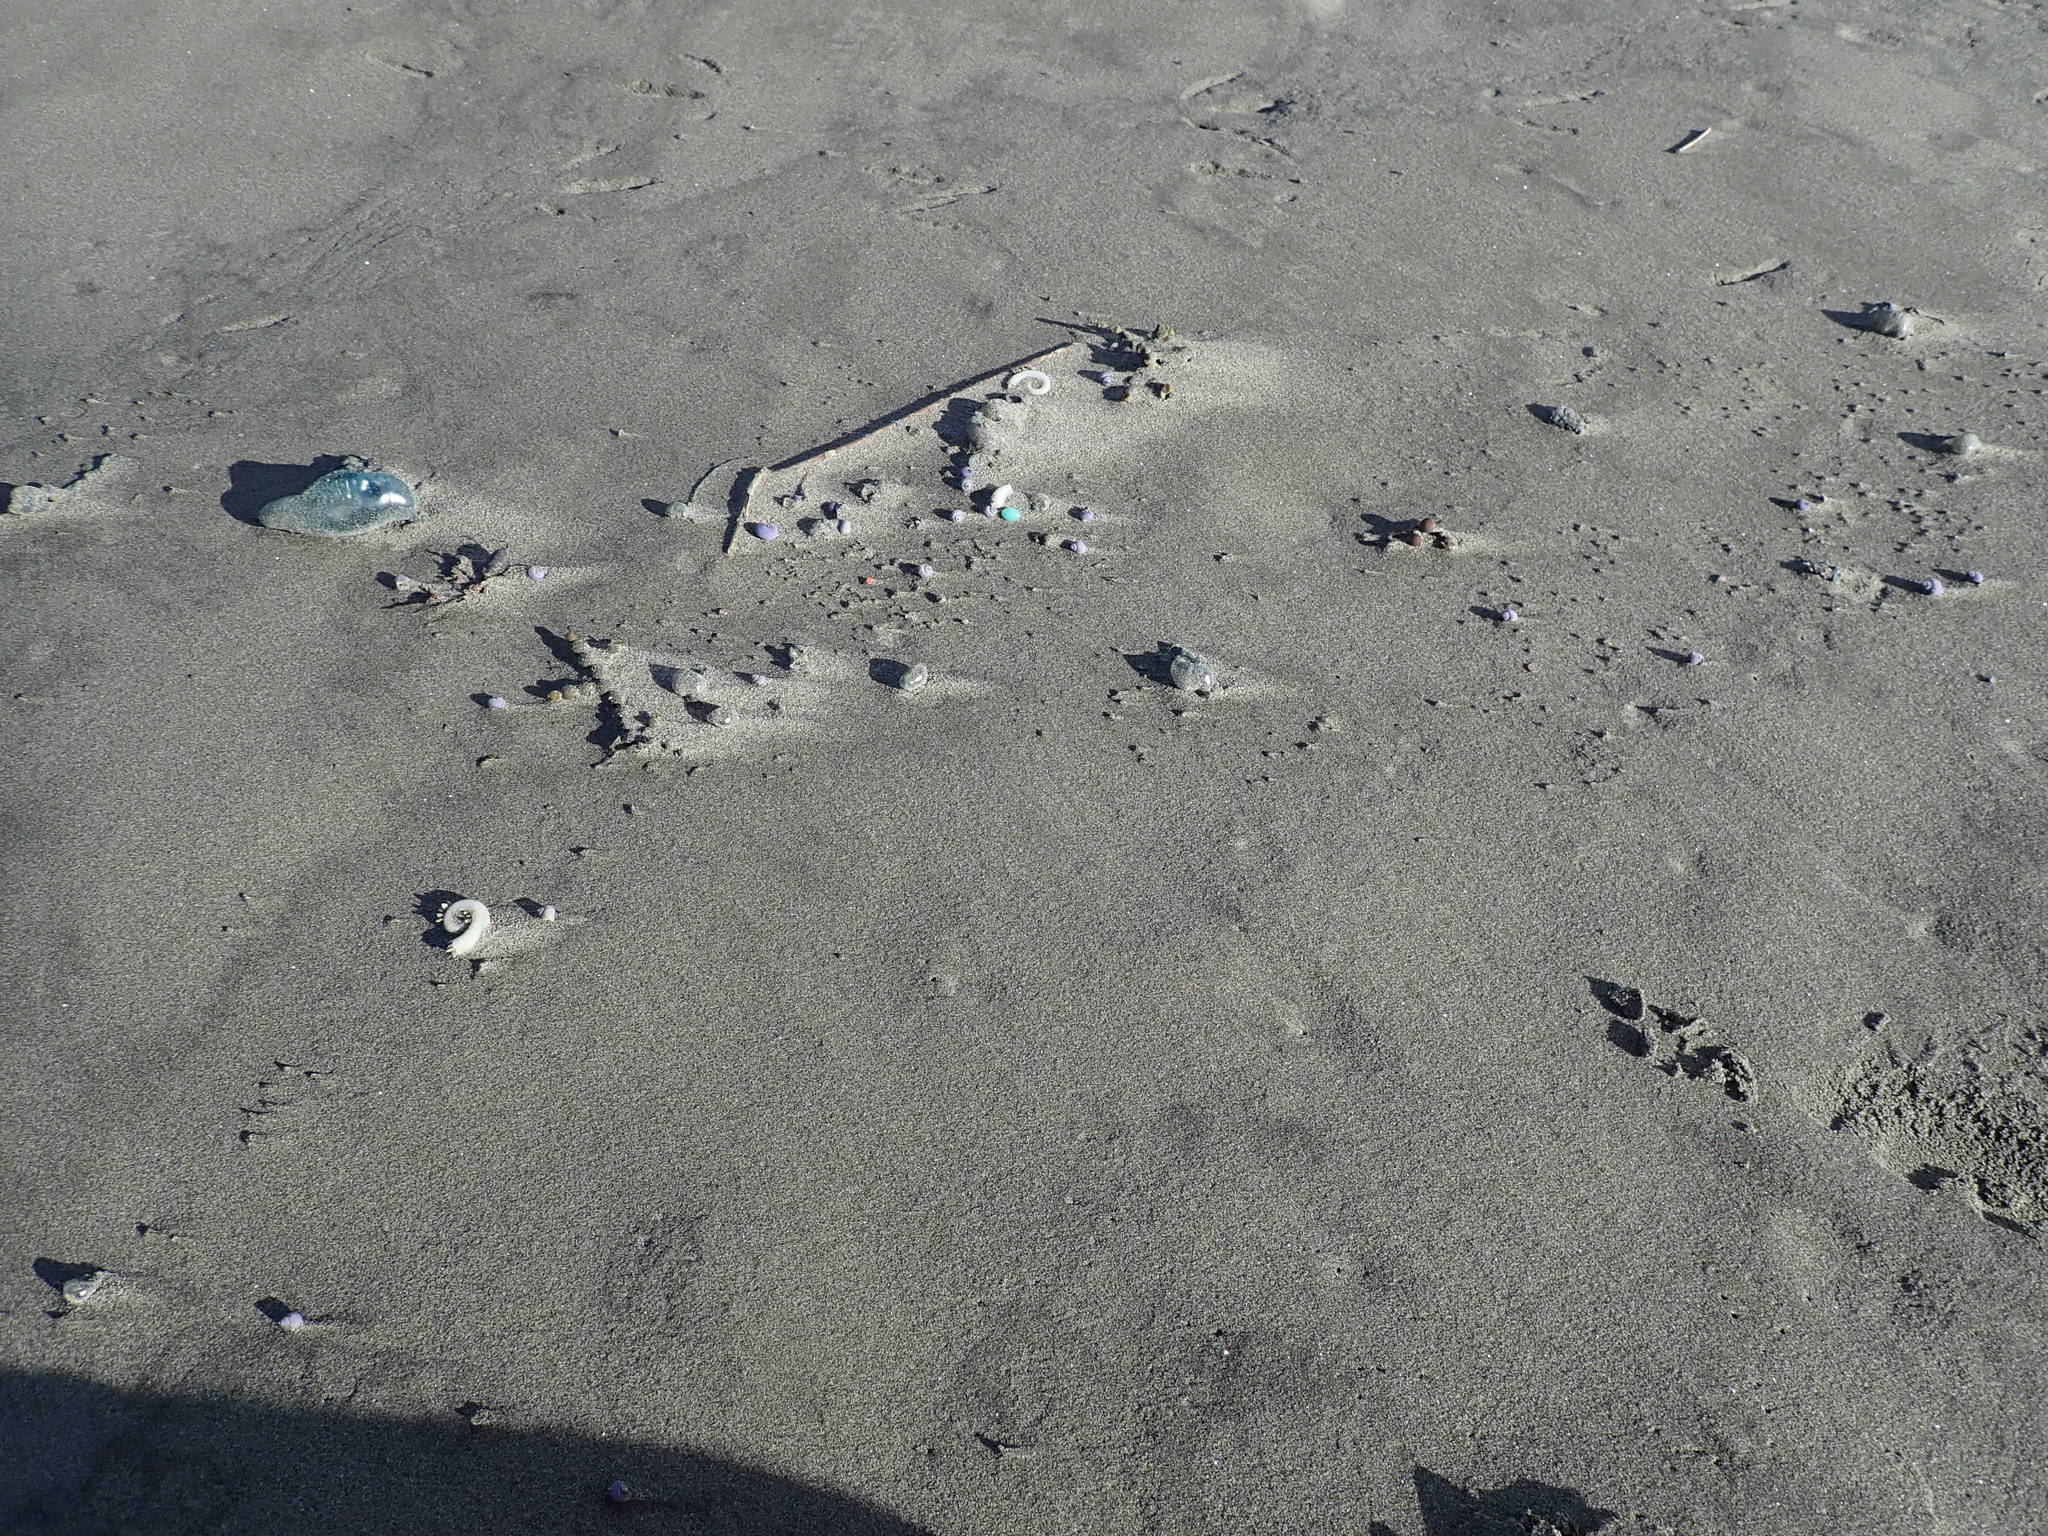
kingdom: Animalia
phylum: Mollusca
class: Gastropoda
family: Epitoniidae
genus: Janthina
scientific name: Janthina exigua
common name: Dwarf janthina
